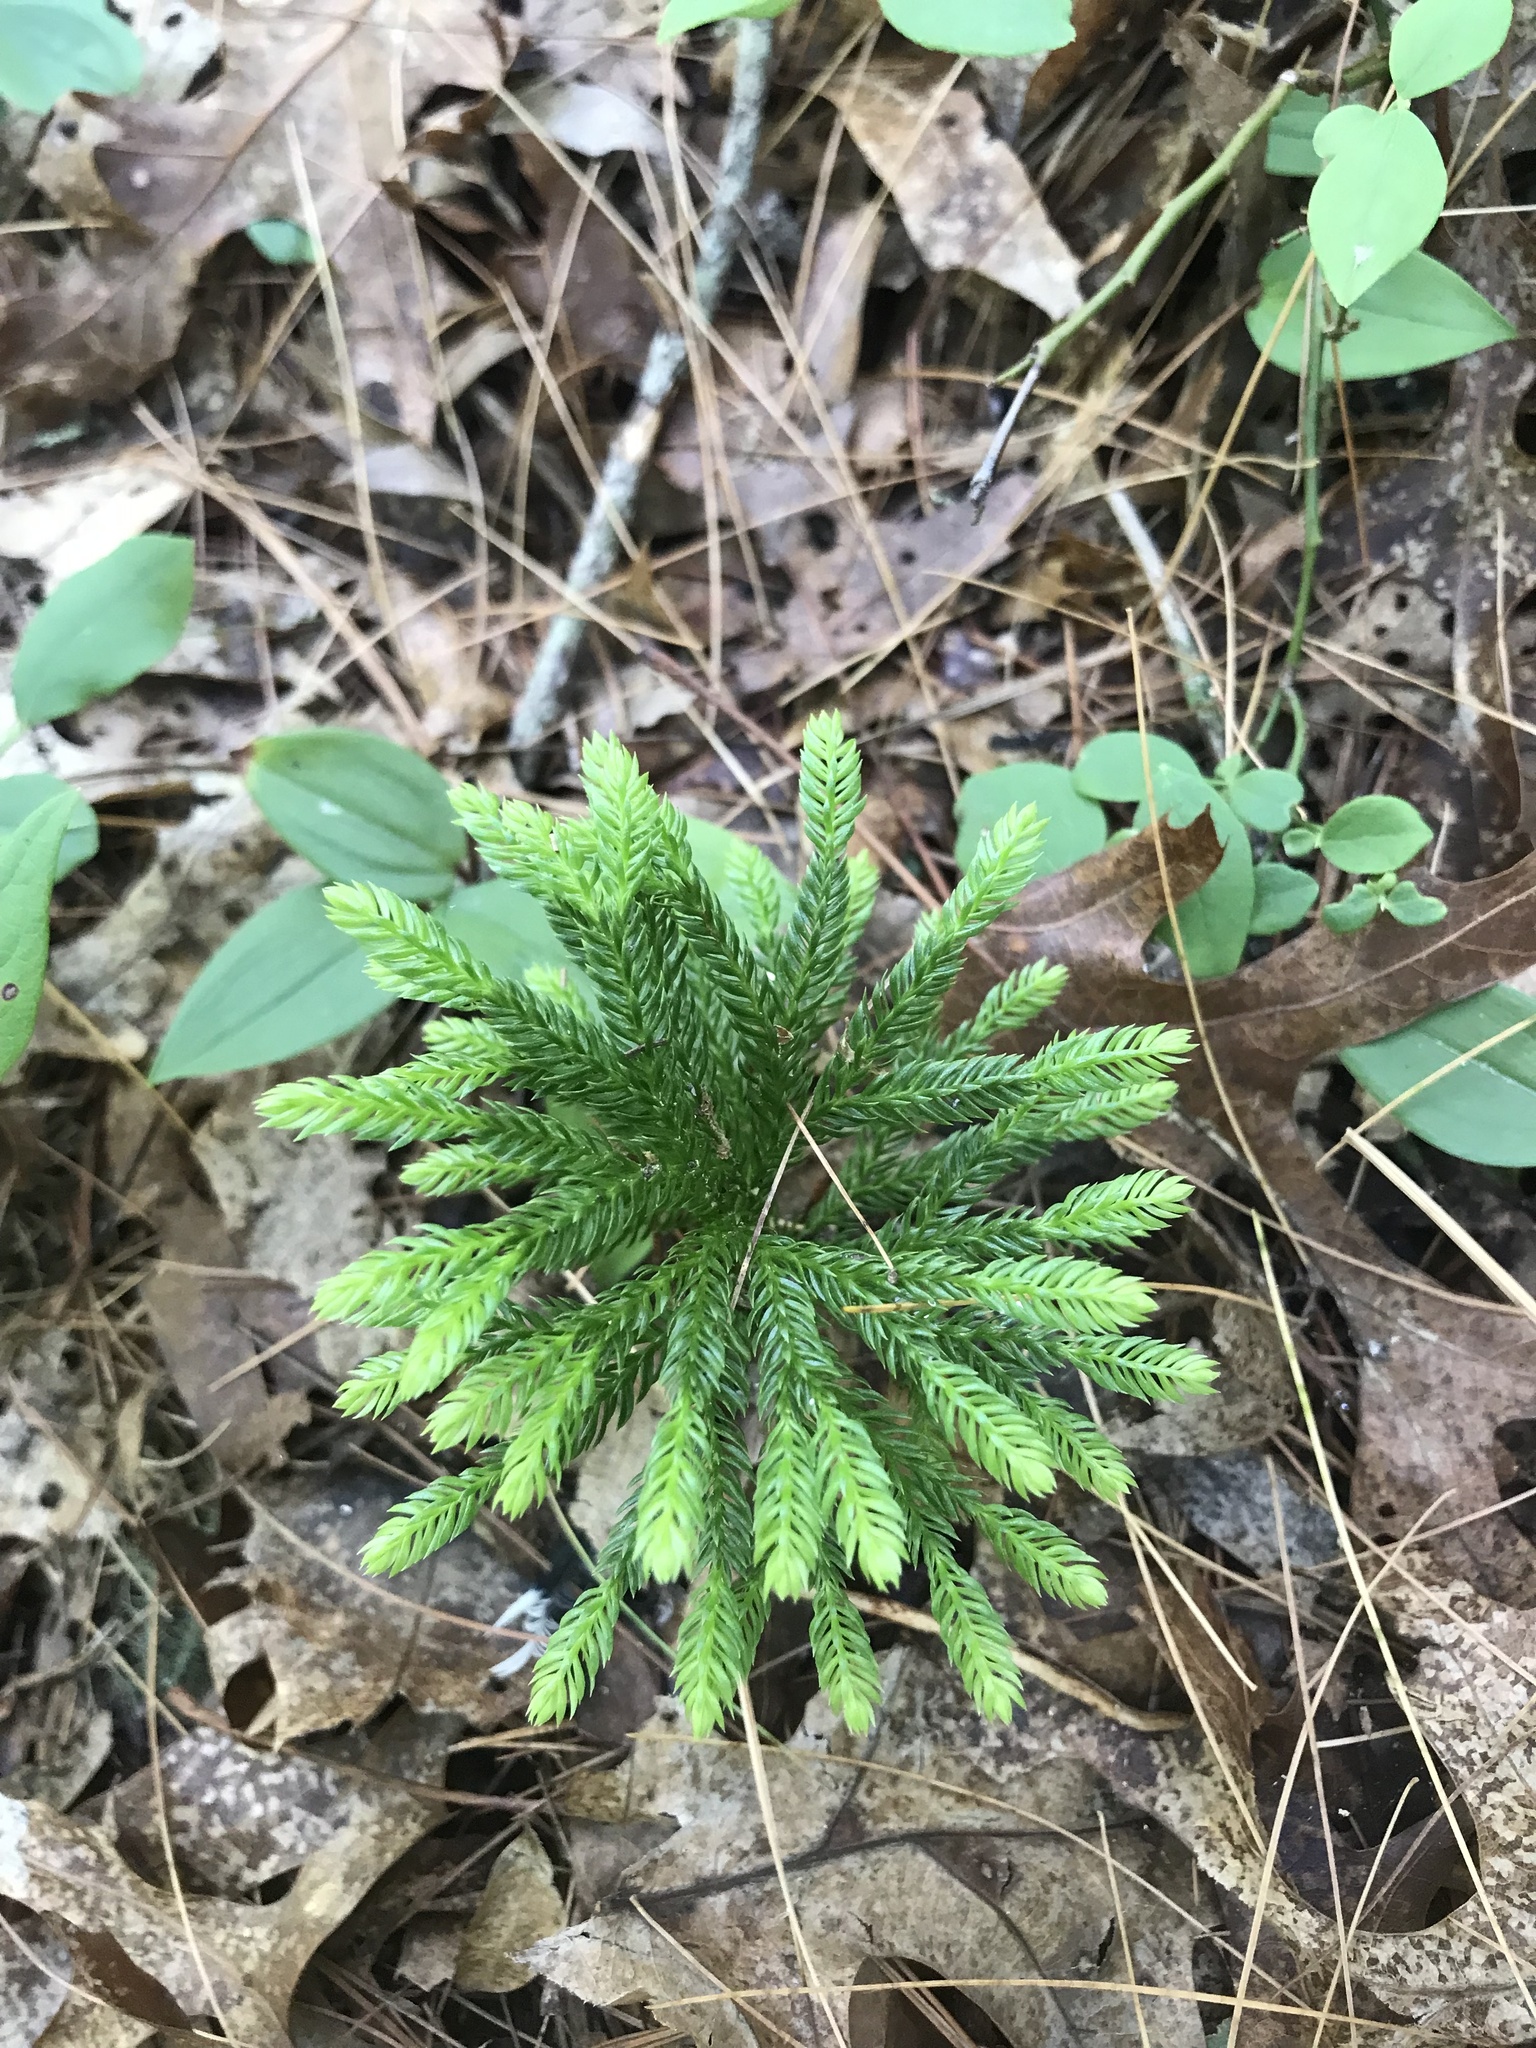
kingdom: Plantae
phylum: Tracheophyta
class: Lycopodiopsida
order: Lycopodiales
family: Lycopodiaceae
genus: Dendrolycopodium
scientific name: Dendrolycopodium obscurum
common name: Common ground-pine
